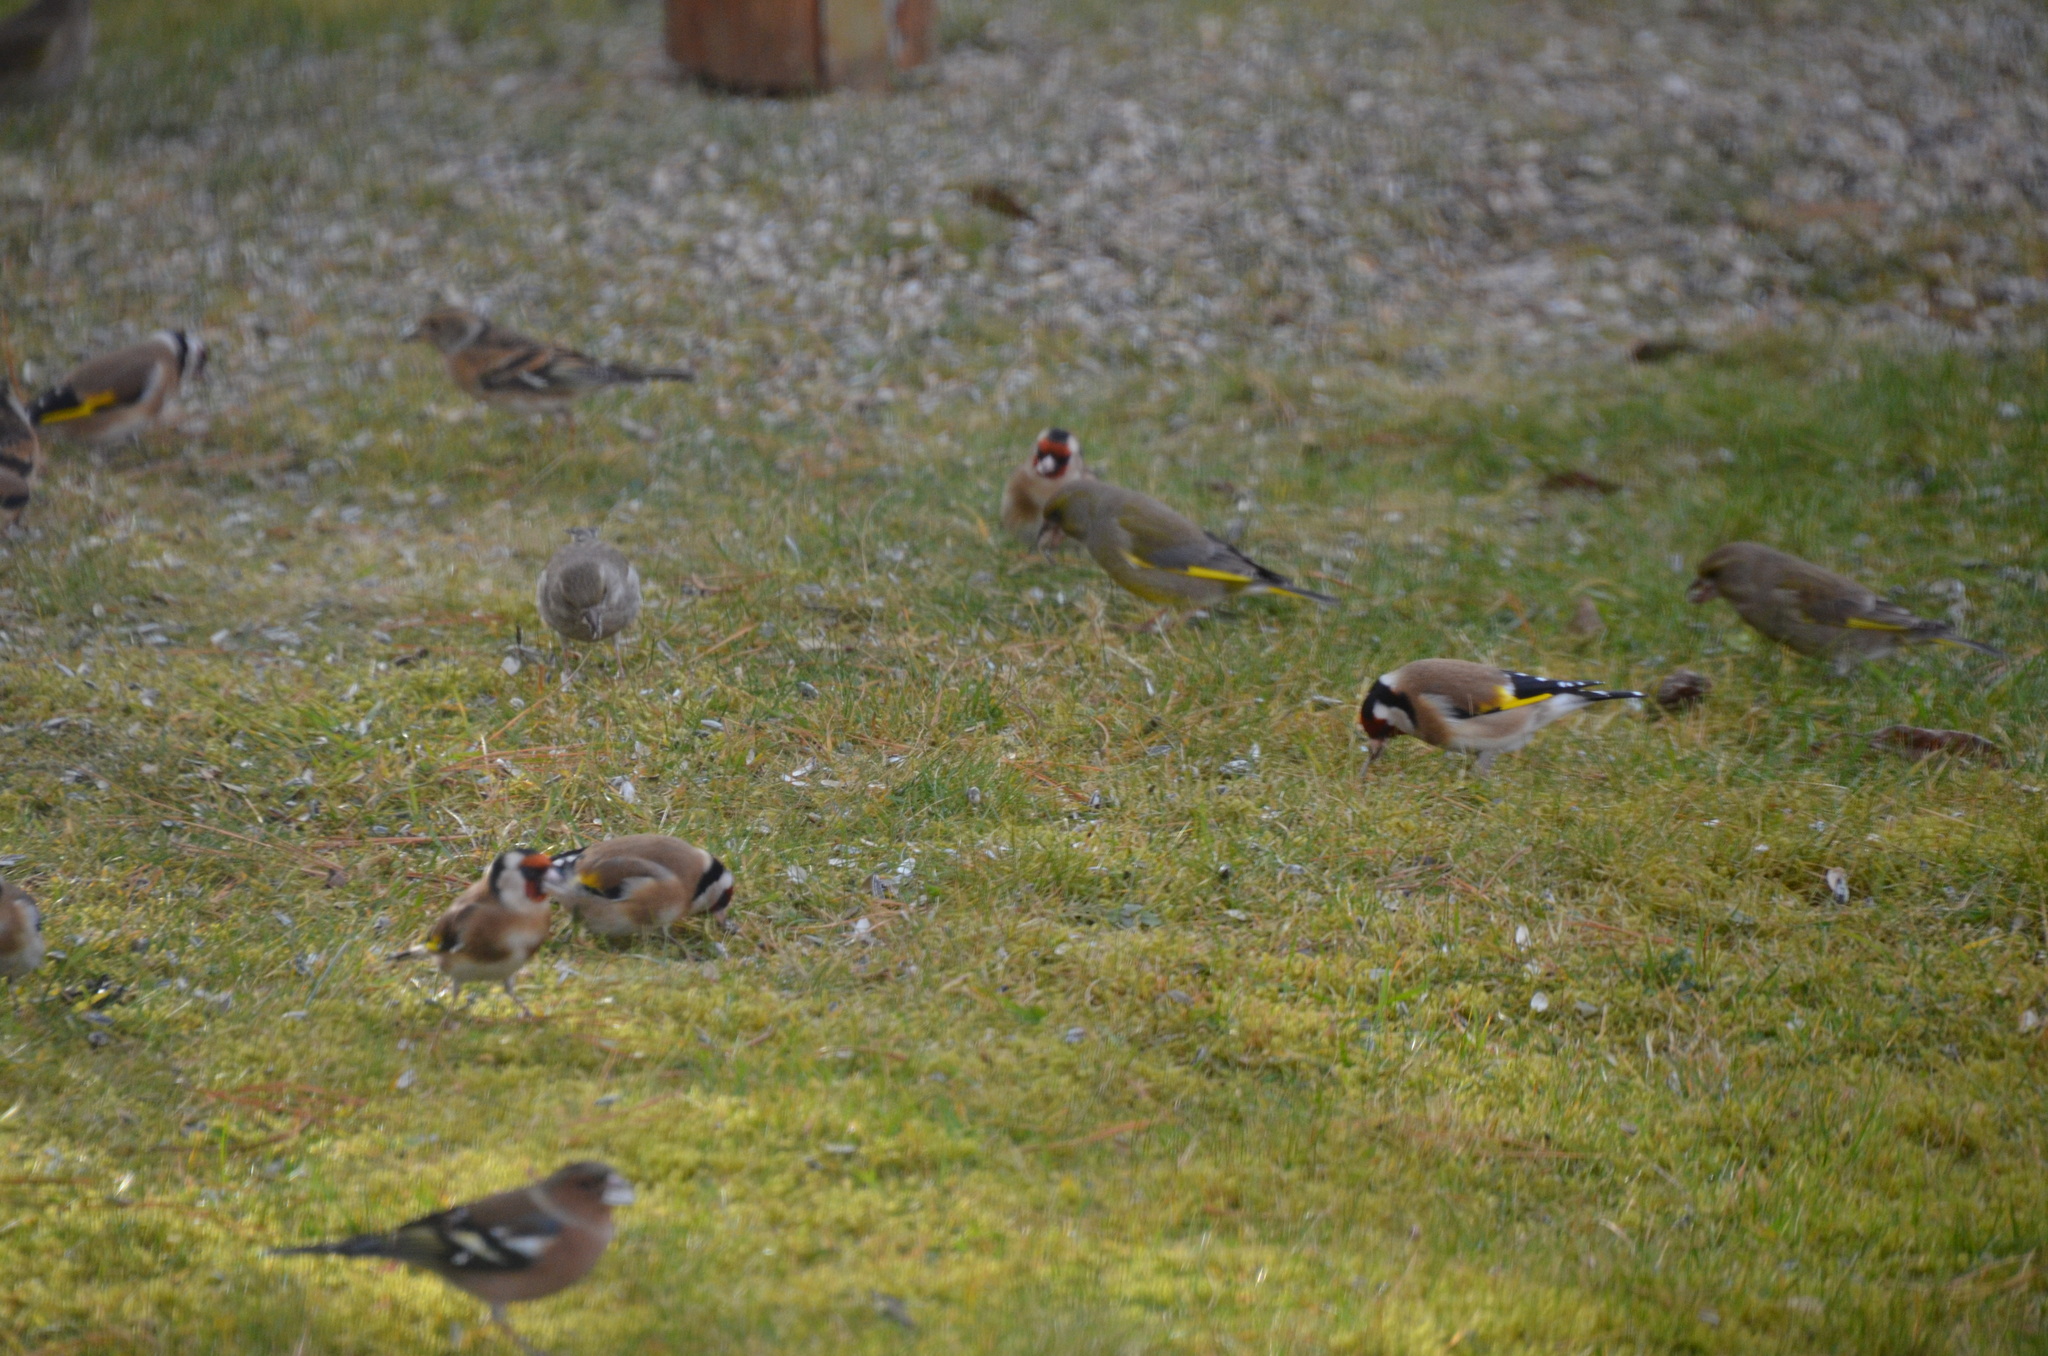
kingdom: Animalia
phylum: Chordata
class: Aves
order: Passeriformes
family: Fringillidae
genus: Carduelis
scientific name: Carduelis carduelis
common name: European goldfinch
